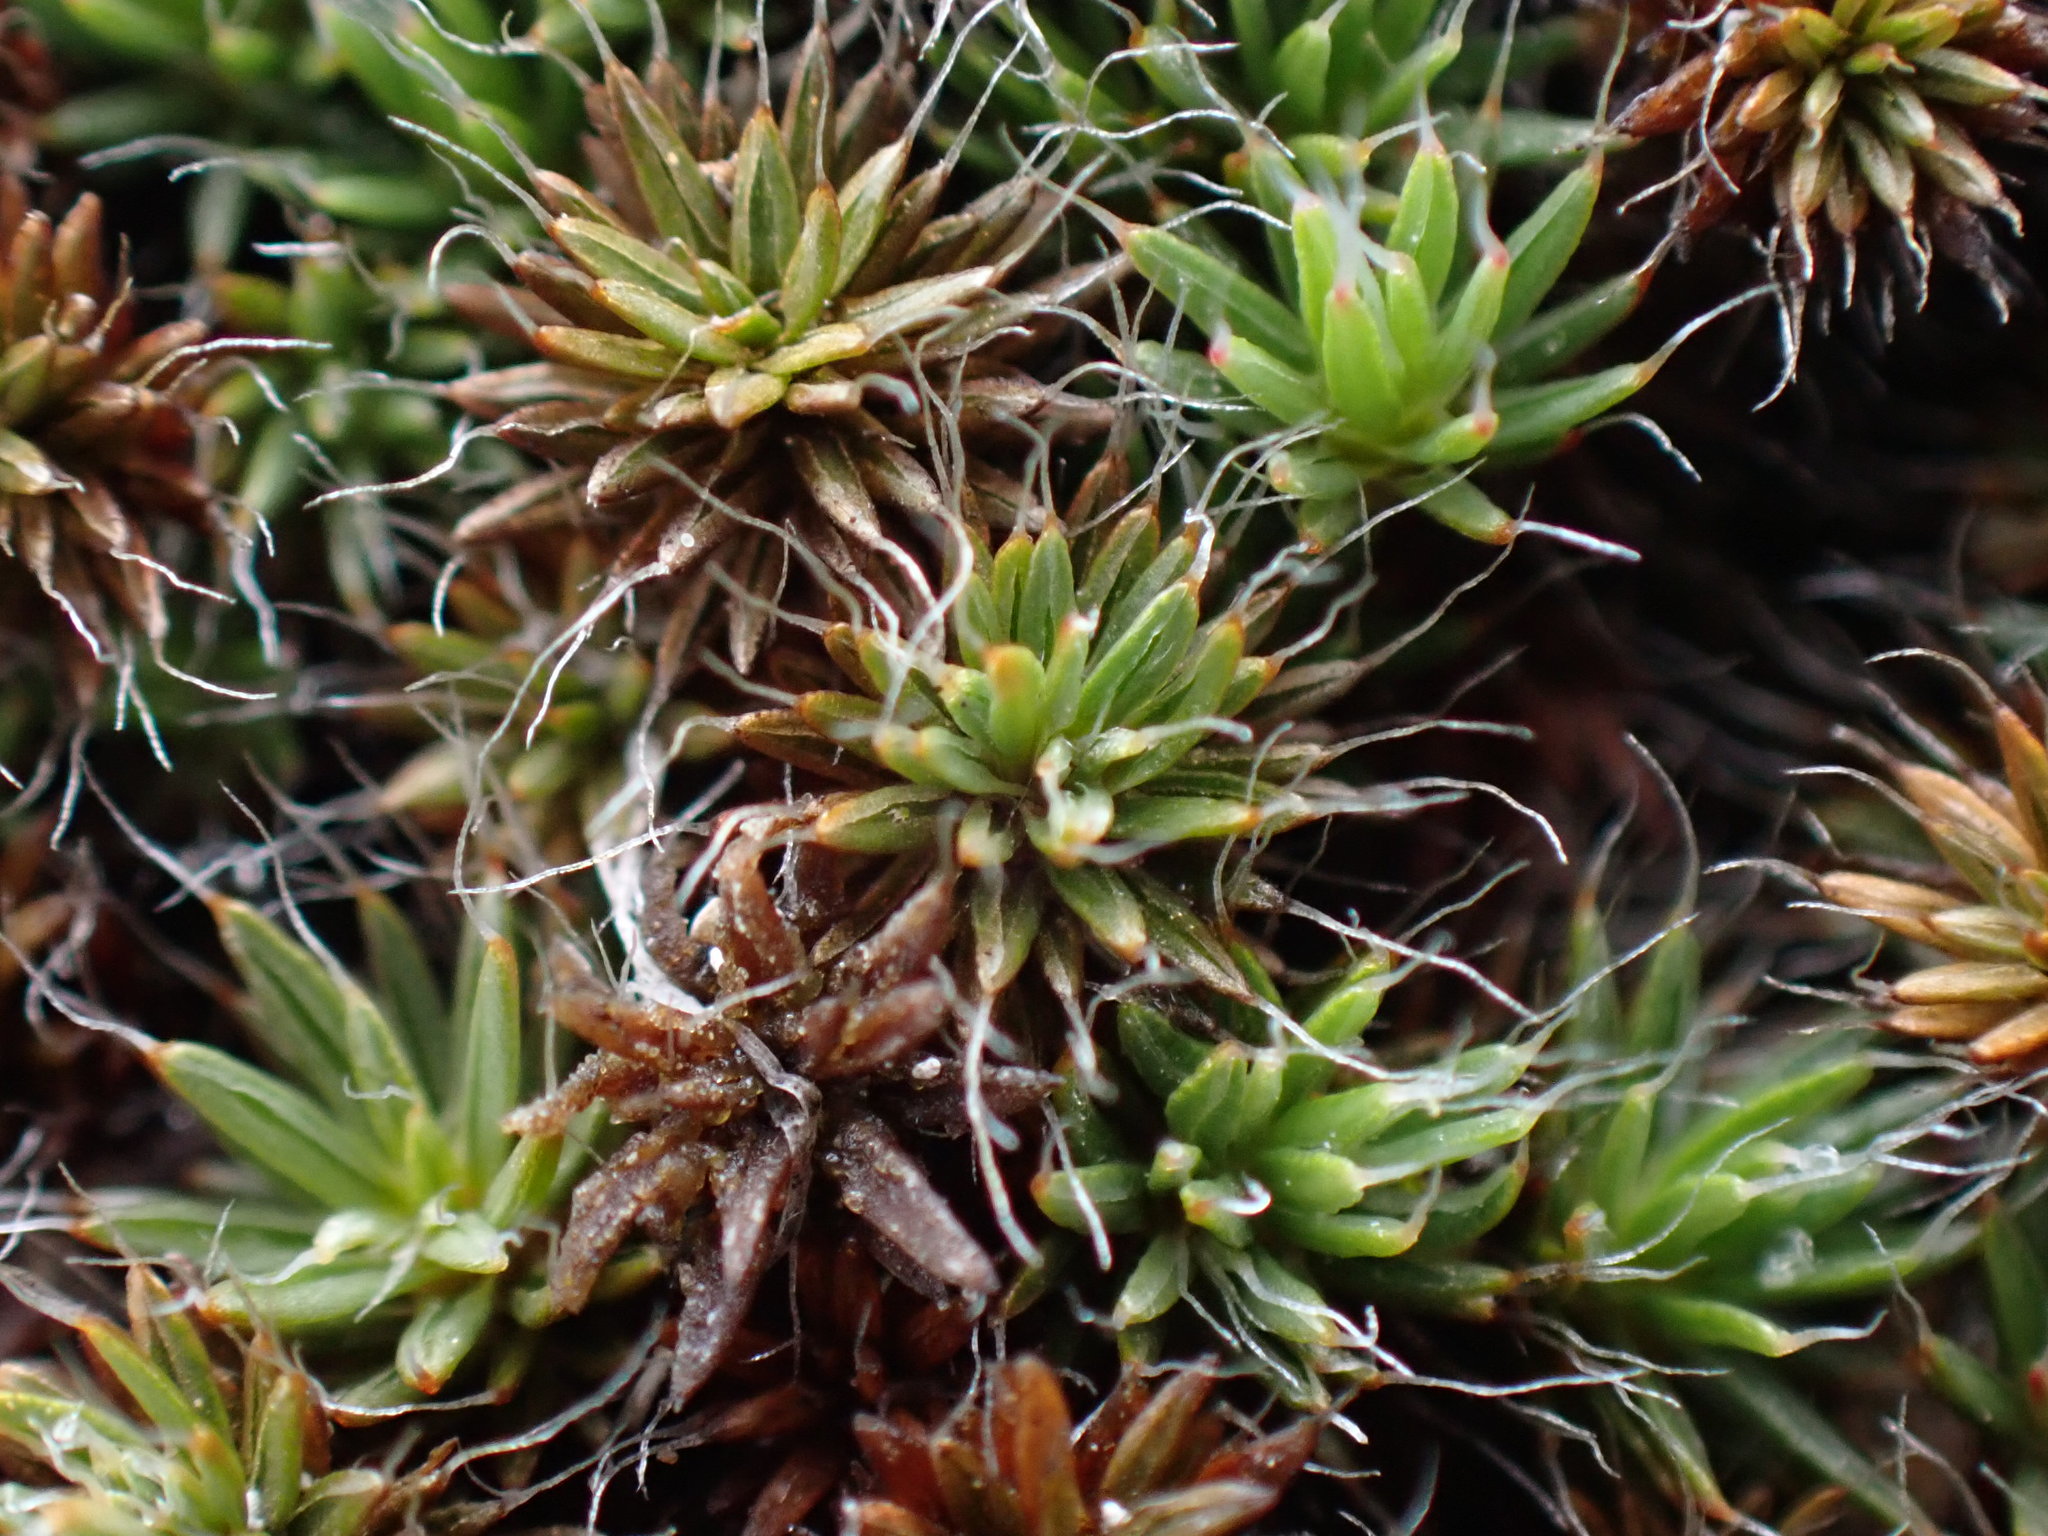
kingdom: Plantae
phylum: Bryophyta
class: Polytrichopsida
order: Polytrichales
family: Polytrichaceae
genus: Polytrichum
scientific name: Polytrichum piliferum
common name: Bristly haircap
